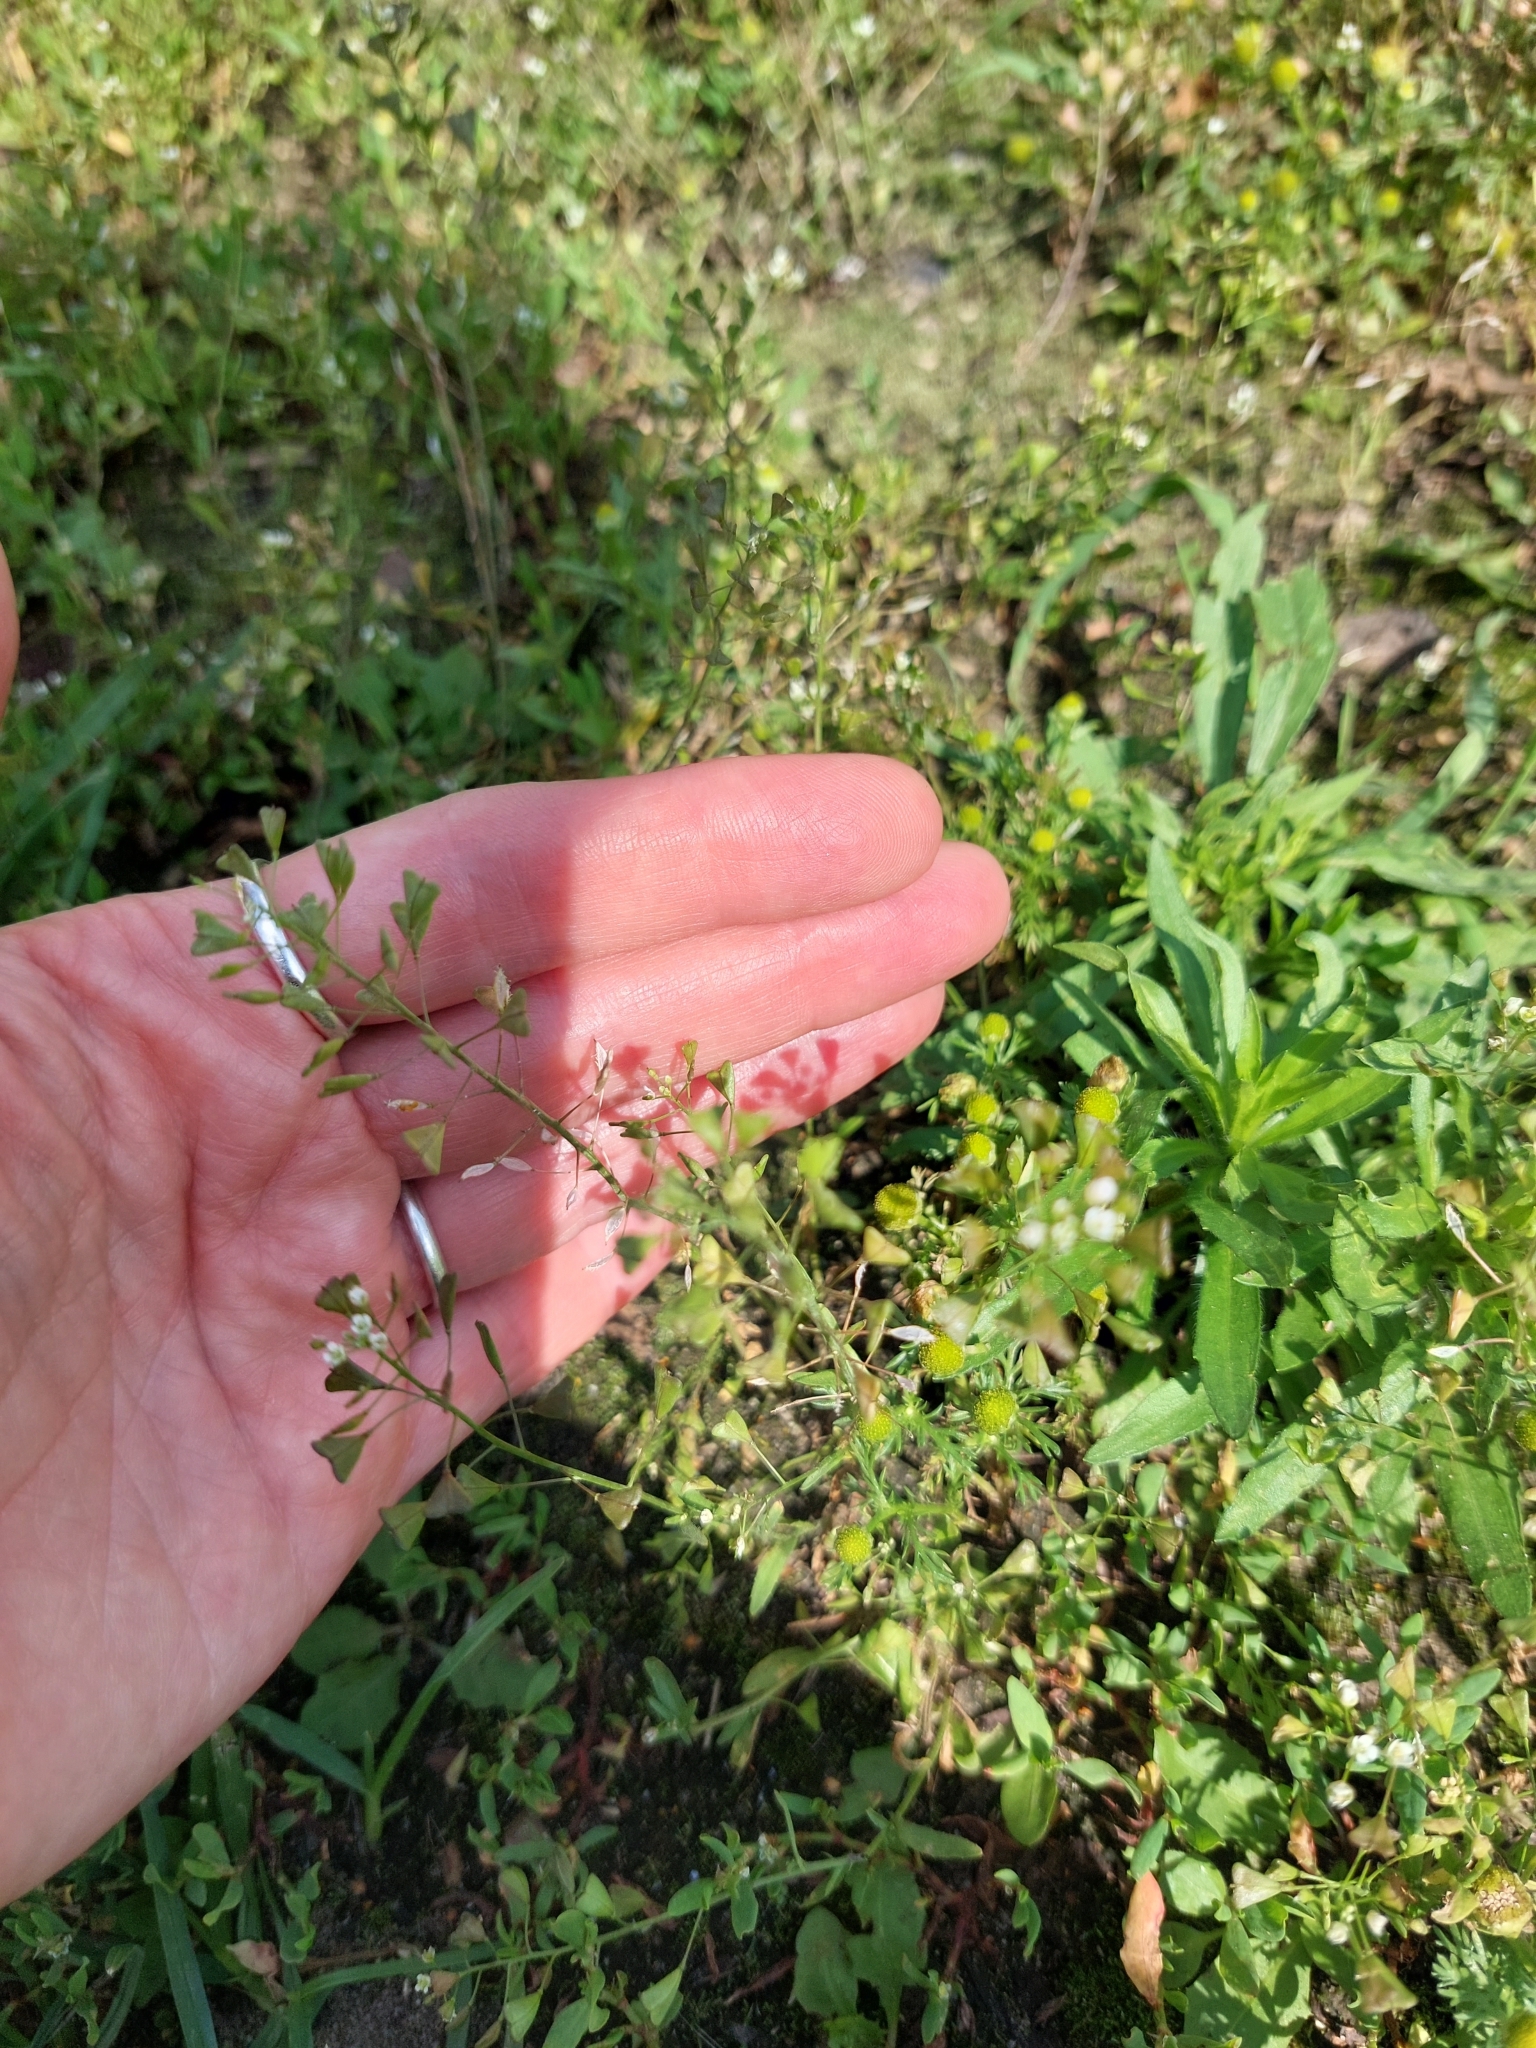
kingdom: Plantae
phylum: Tracheophyta
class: Magnoliopsida
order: Brassicales
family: Brassicaceae
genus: Capsella
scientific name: Capsella bursa-pastoris
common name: Shepherd's purse
